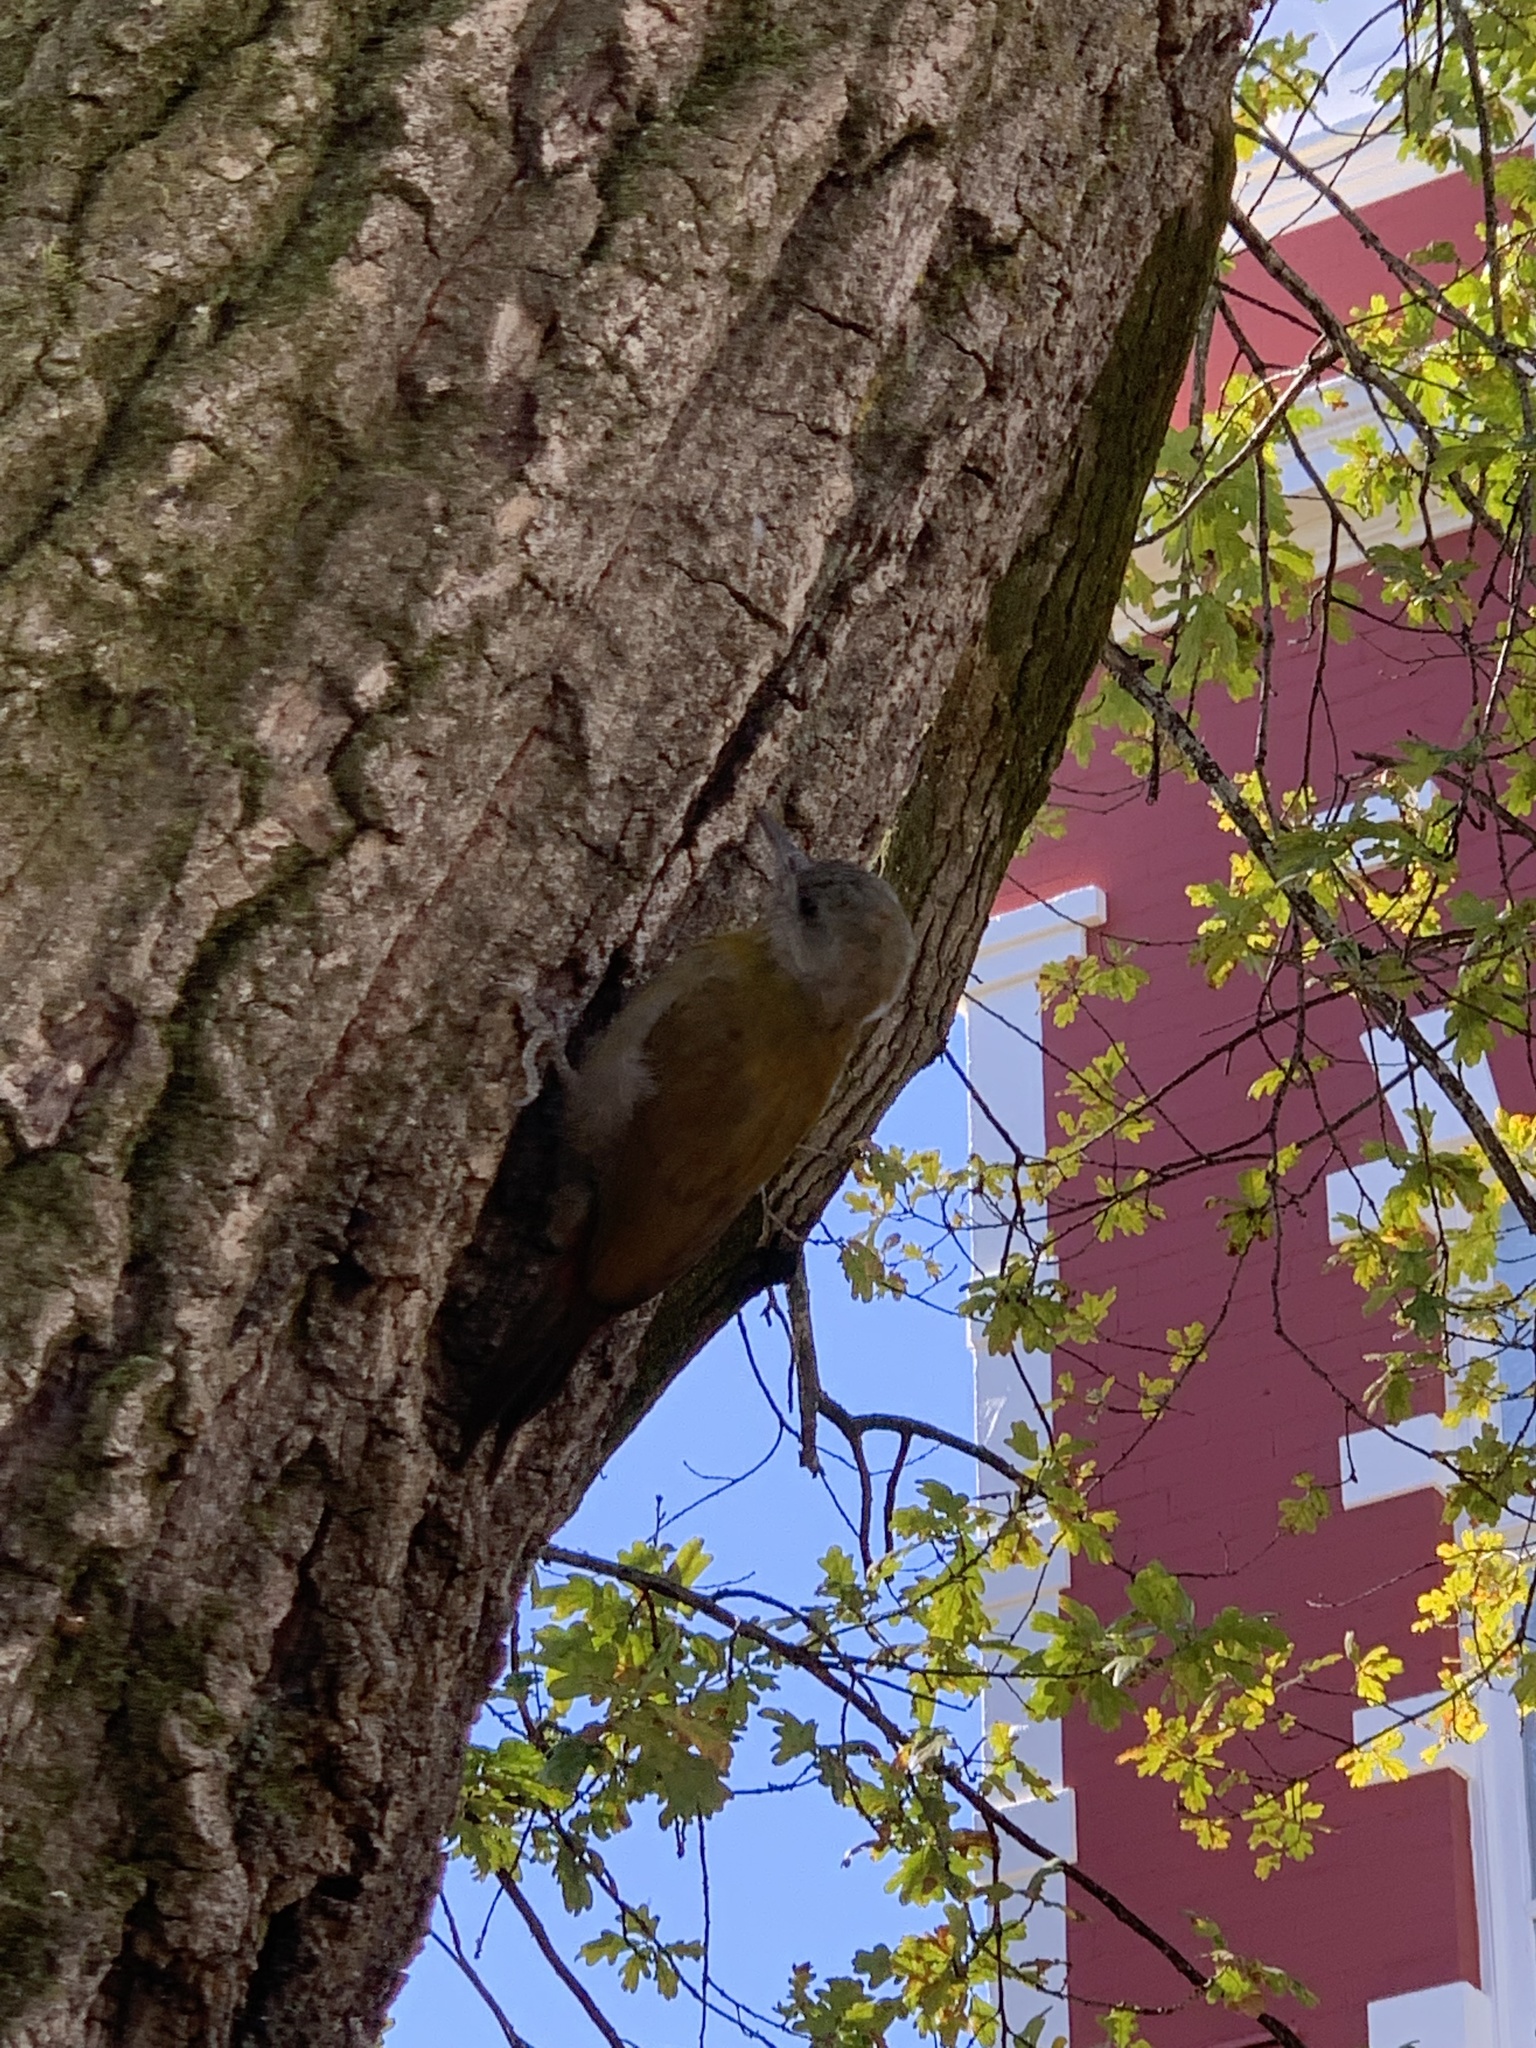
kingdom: Animalia
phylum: Chordata
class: Aves
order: Piciformes
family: Picidae
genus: Dendropicos
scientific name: Dendropicos griseocephalus
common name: Olive woodpecker
